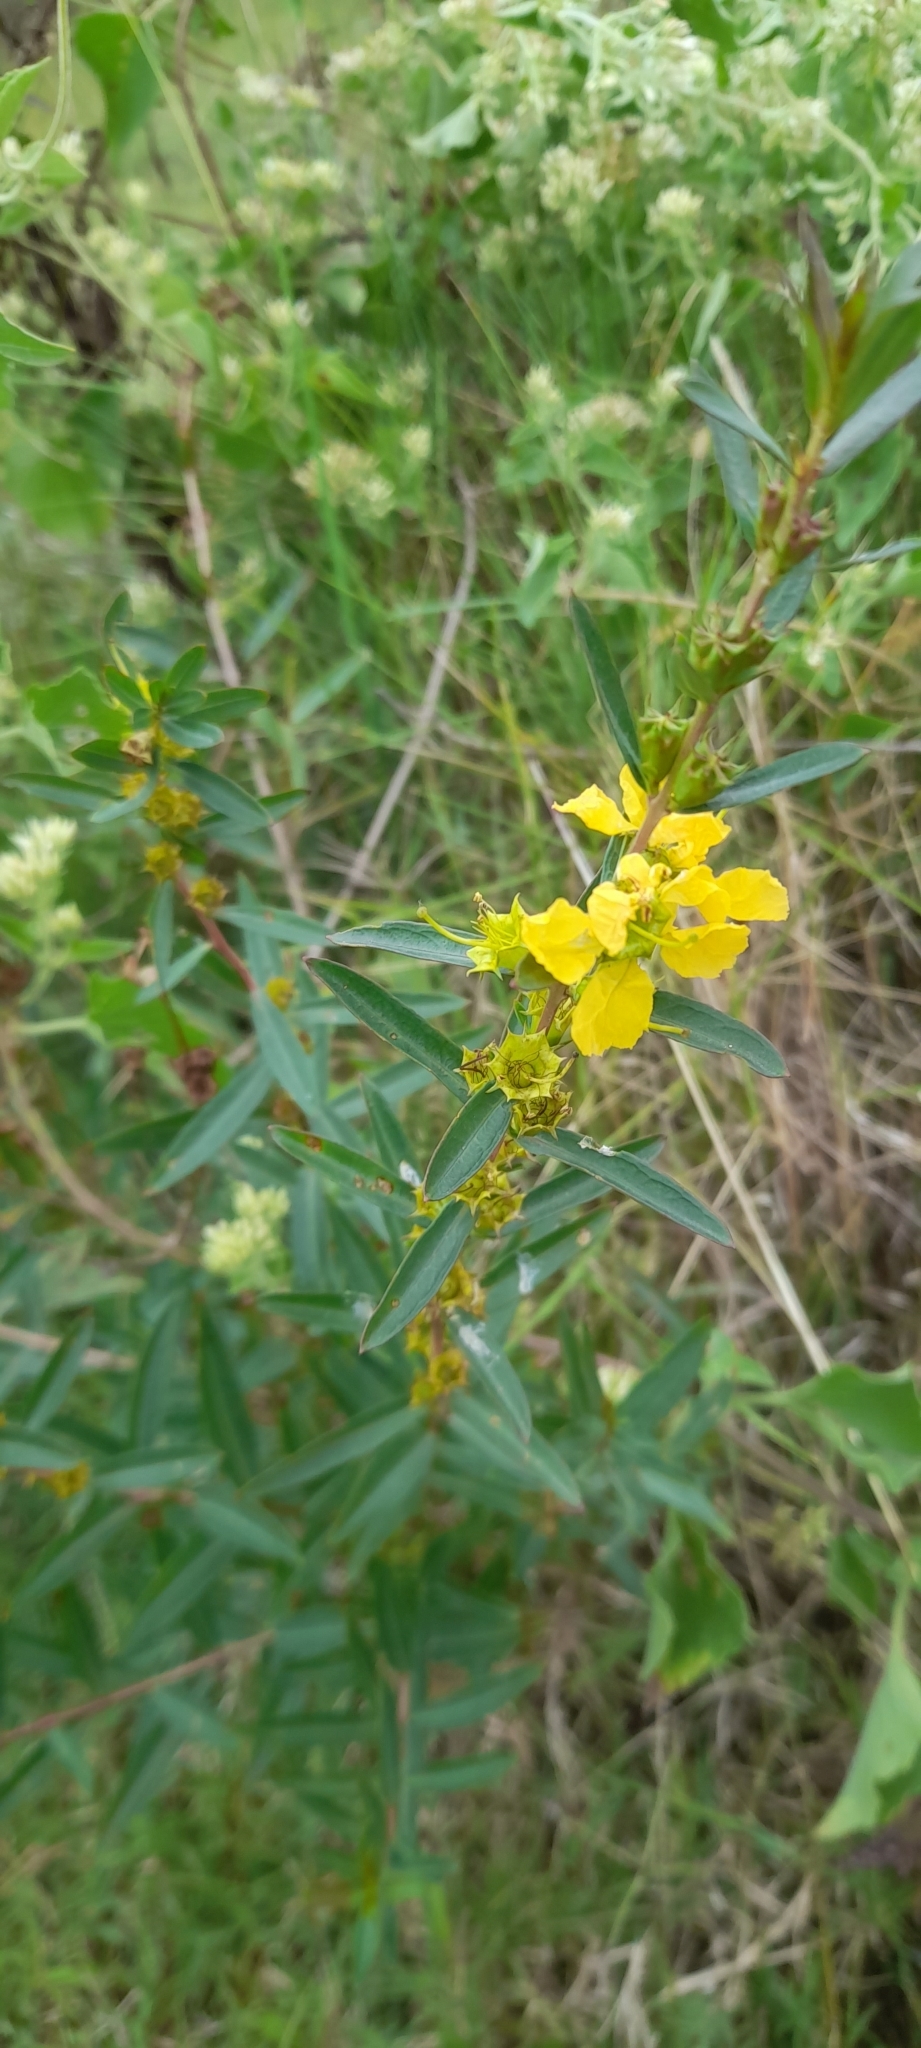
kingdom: Plantae
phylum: Tracheophyta
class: Magnoliopsida
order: Myrtales
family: Lythraceae
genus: Heimia
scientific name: Heimia salicifolia
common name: Willow-leaf heimia
